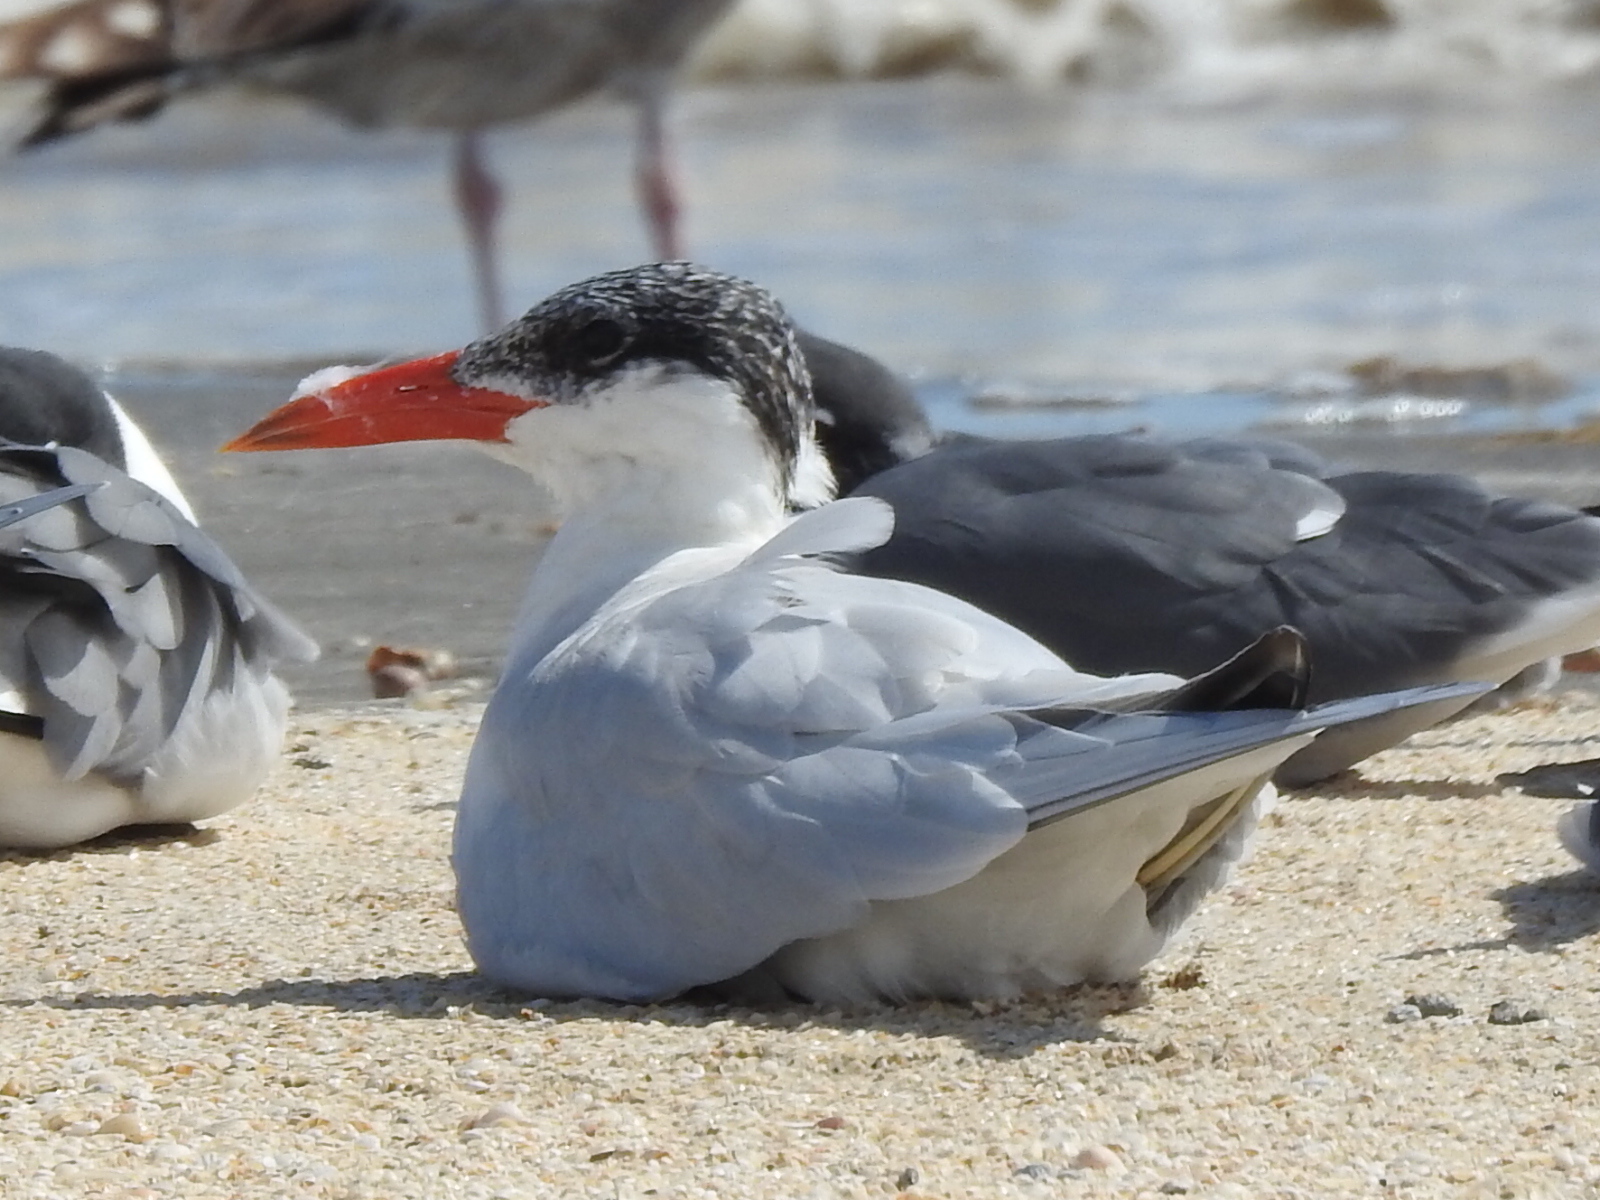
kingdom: Animalia
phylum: Chordata
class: Aves
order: Charadriiformes
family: Laridae
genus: Hydroprogne
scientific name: Hydroprogne caspia
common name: Caspian tern
